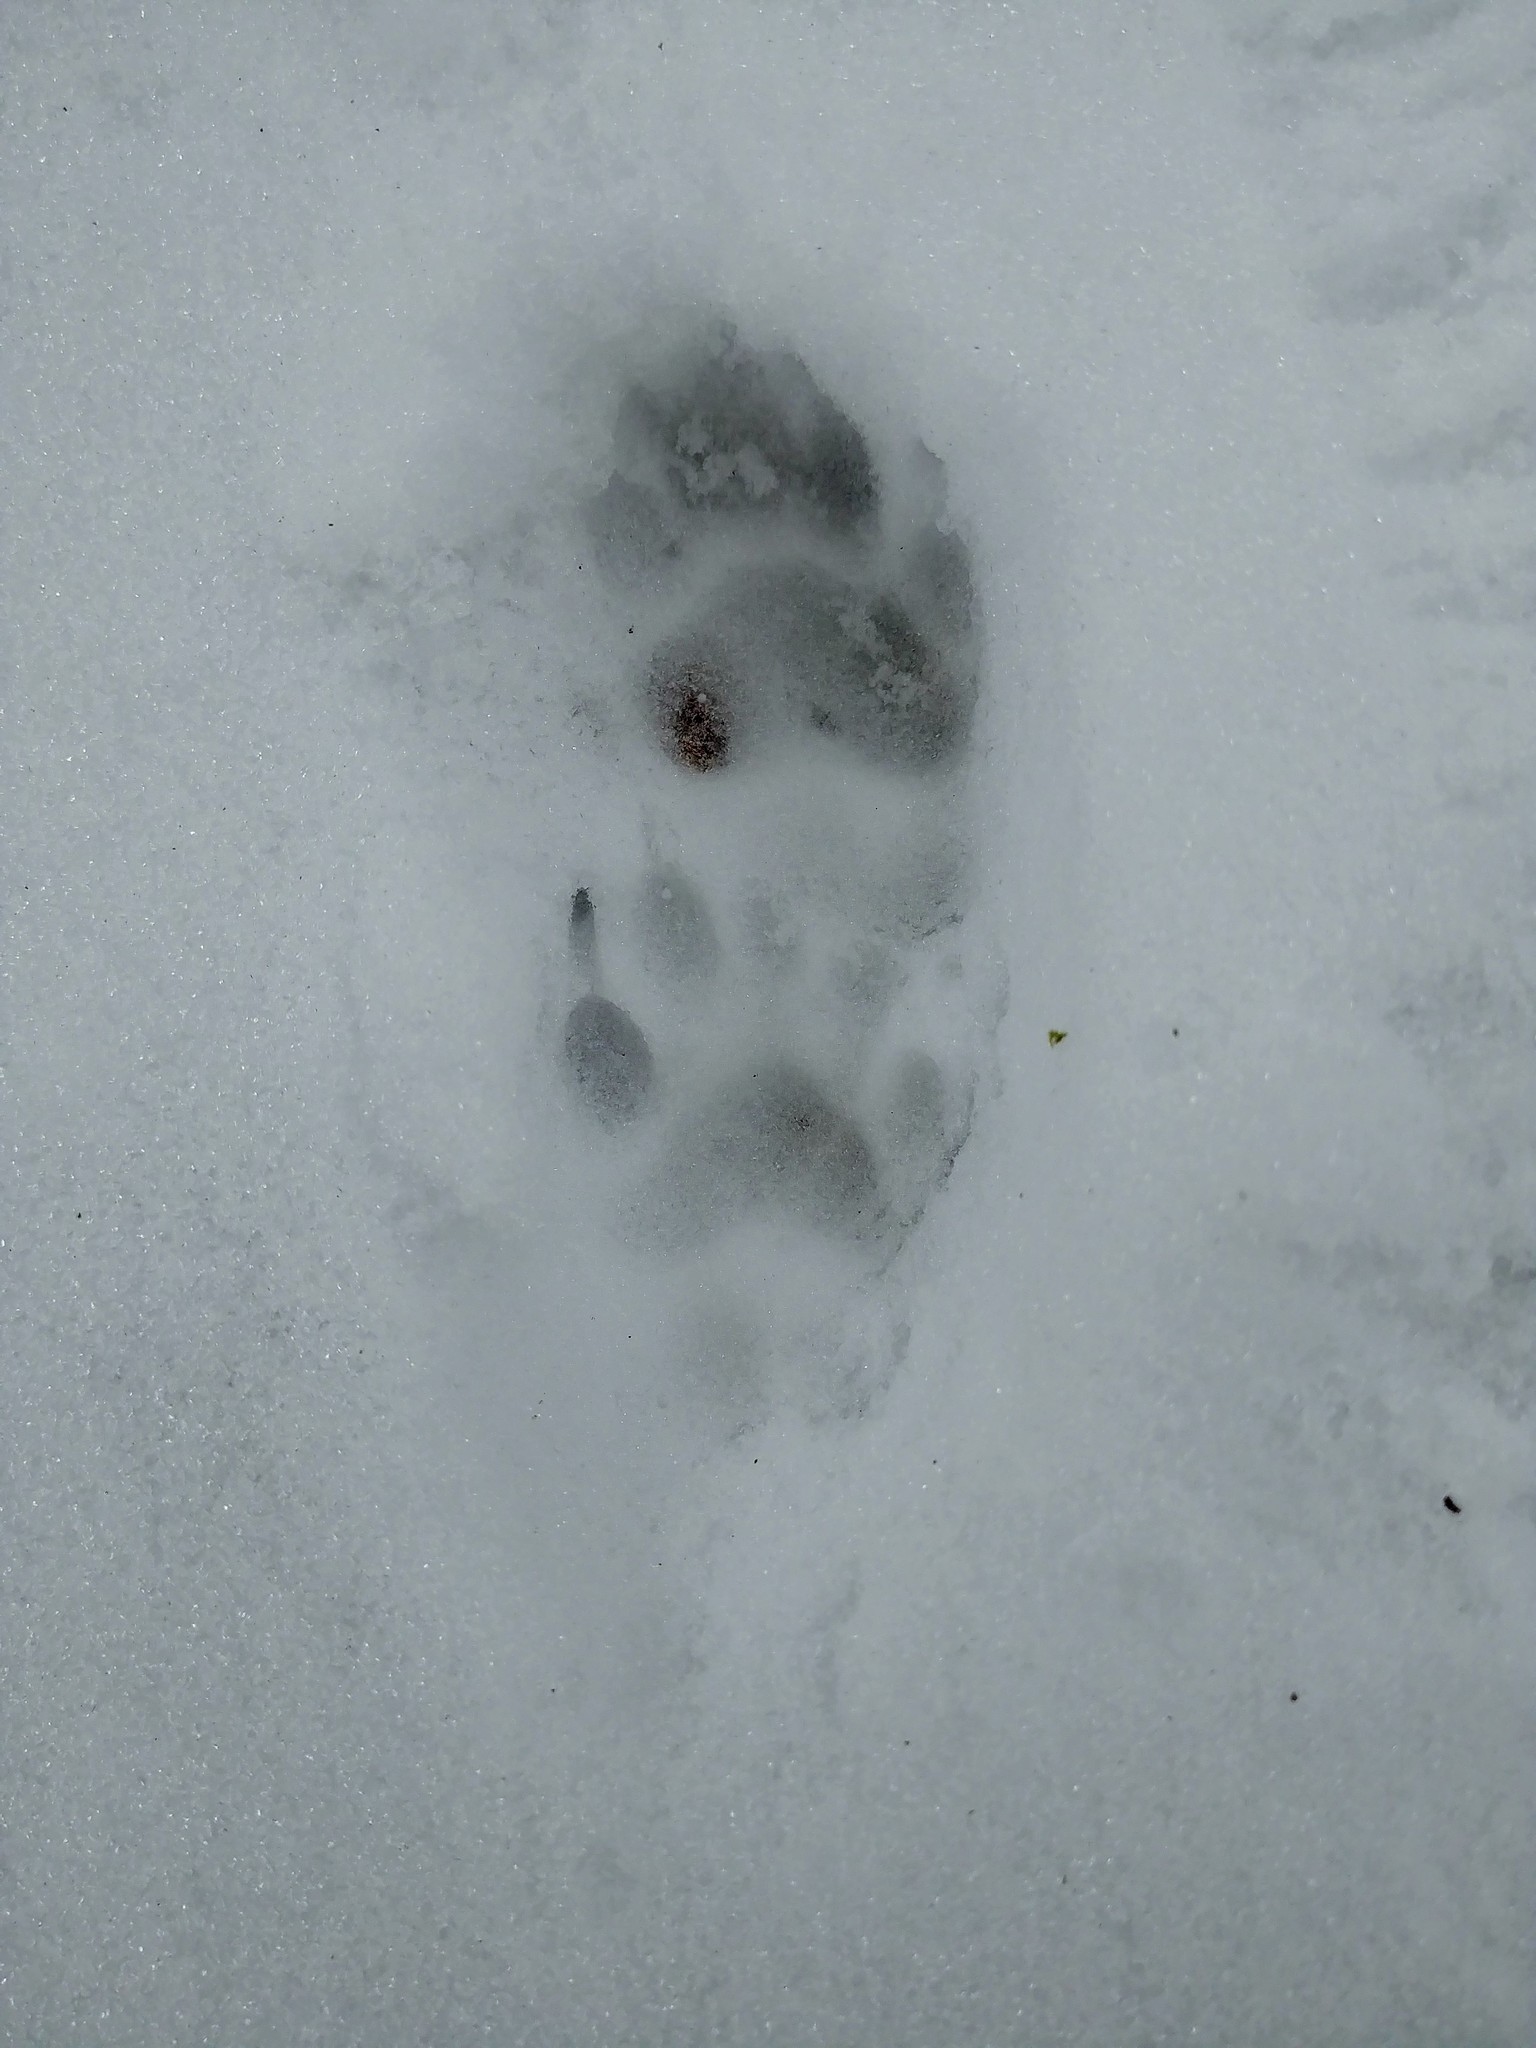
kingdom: Animalia
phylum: Chordata
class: Mammalia
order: Carnivora
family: Procyonidae
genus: Procyon
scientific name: Procyon lotor
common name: Raccoon
